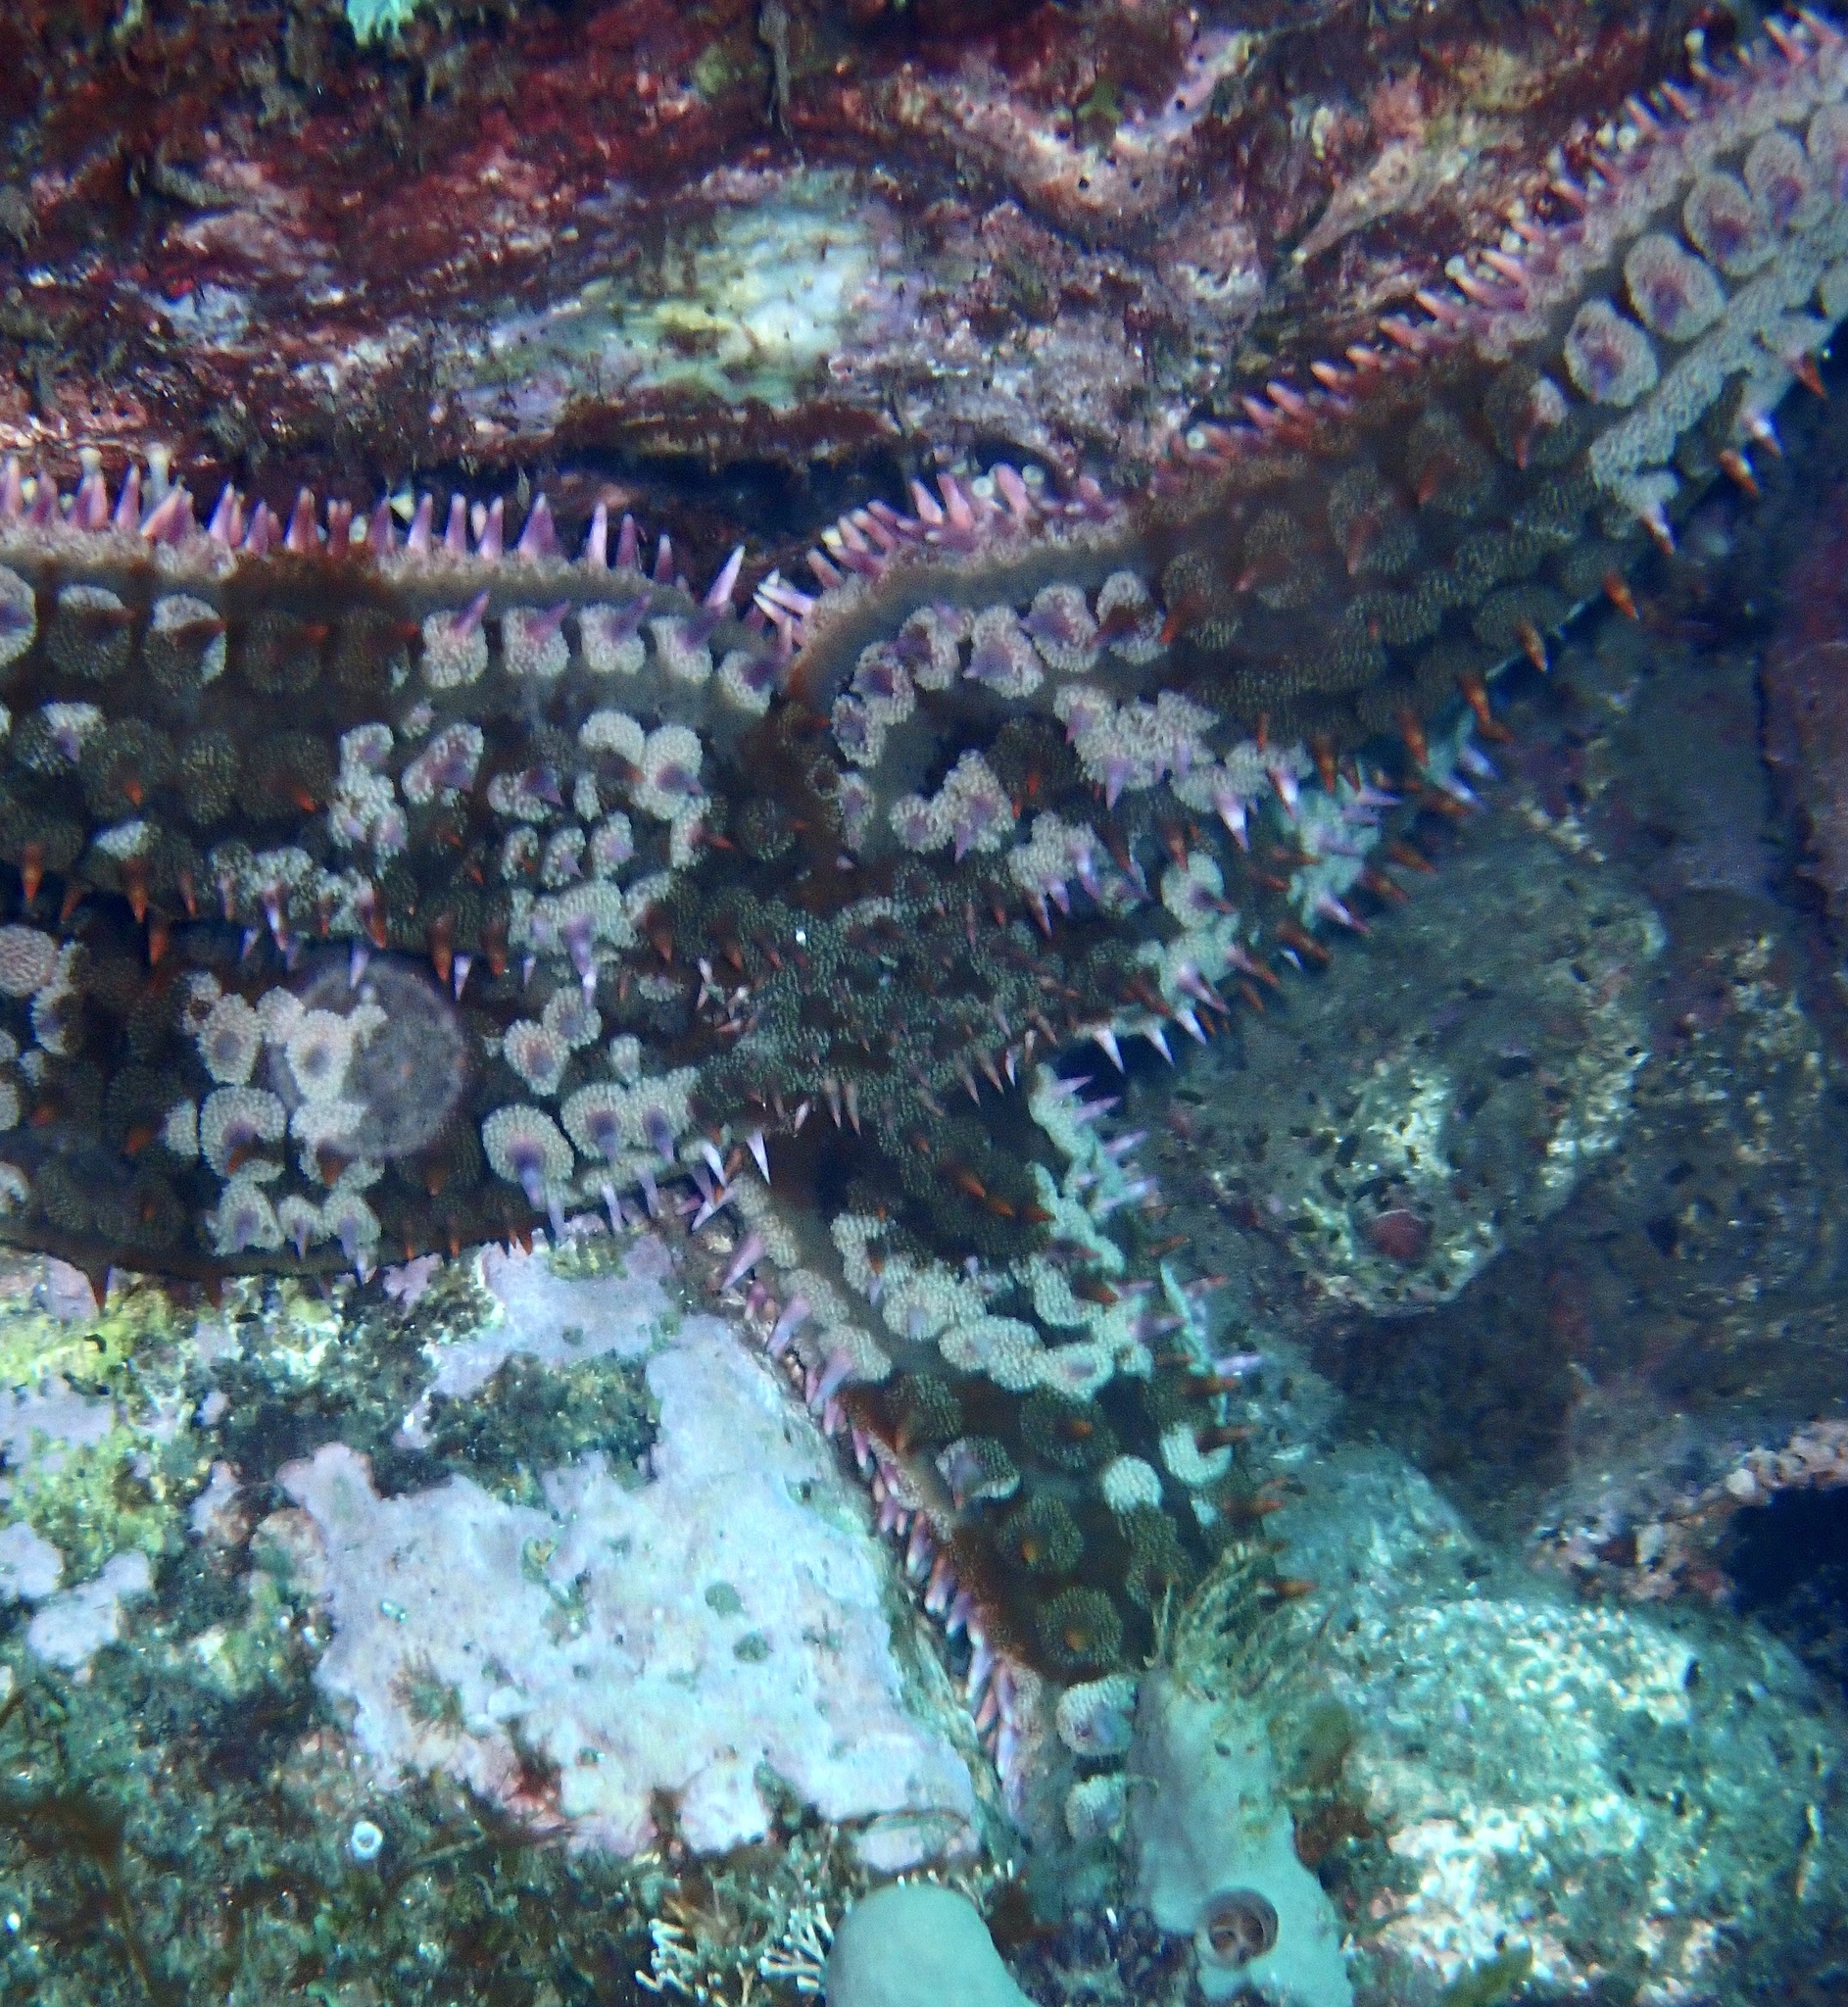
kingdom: Animalia
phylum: Echinodermata
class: Asteroidea
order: Forcipulatida
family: Asteriidae
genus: Marthasterias
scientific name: Marthasterias glacialis
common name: Spiny starfish
